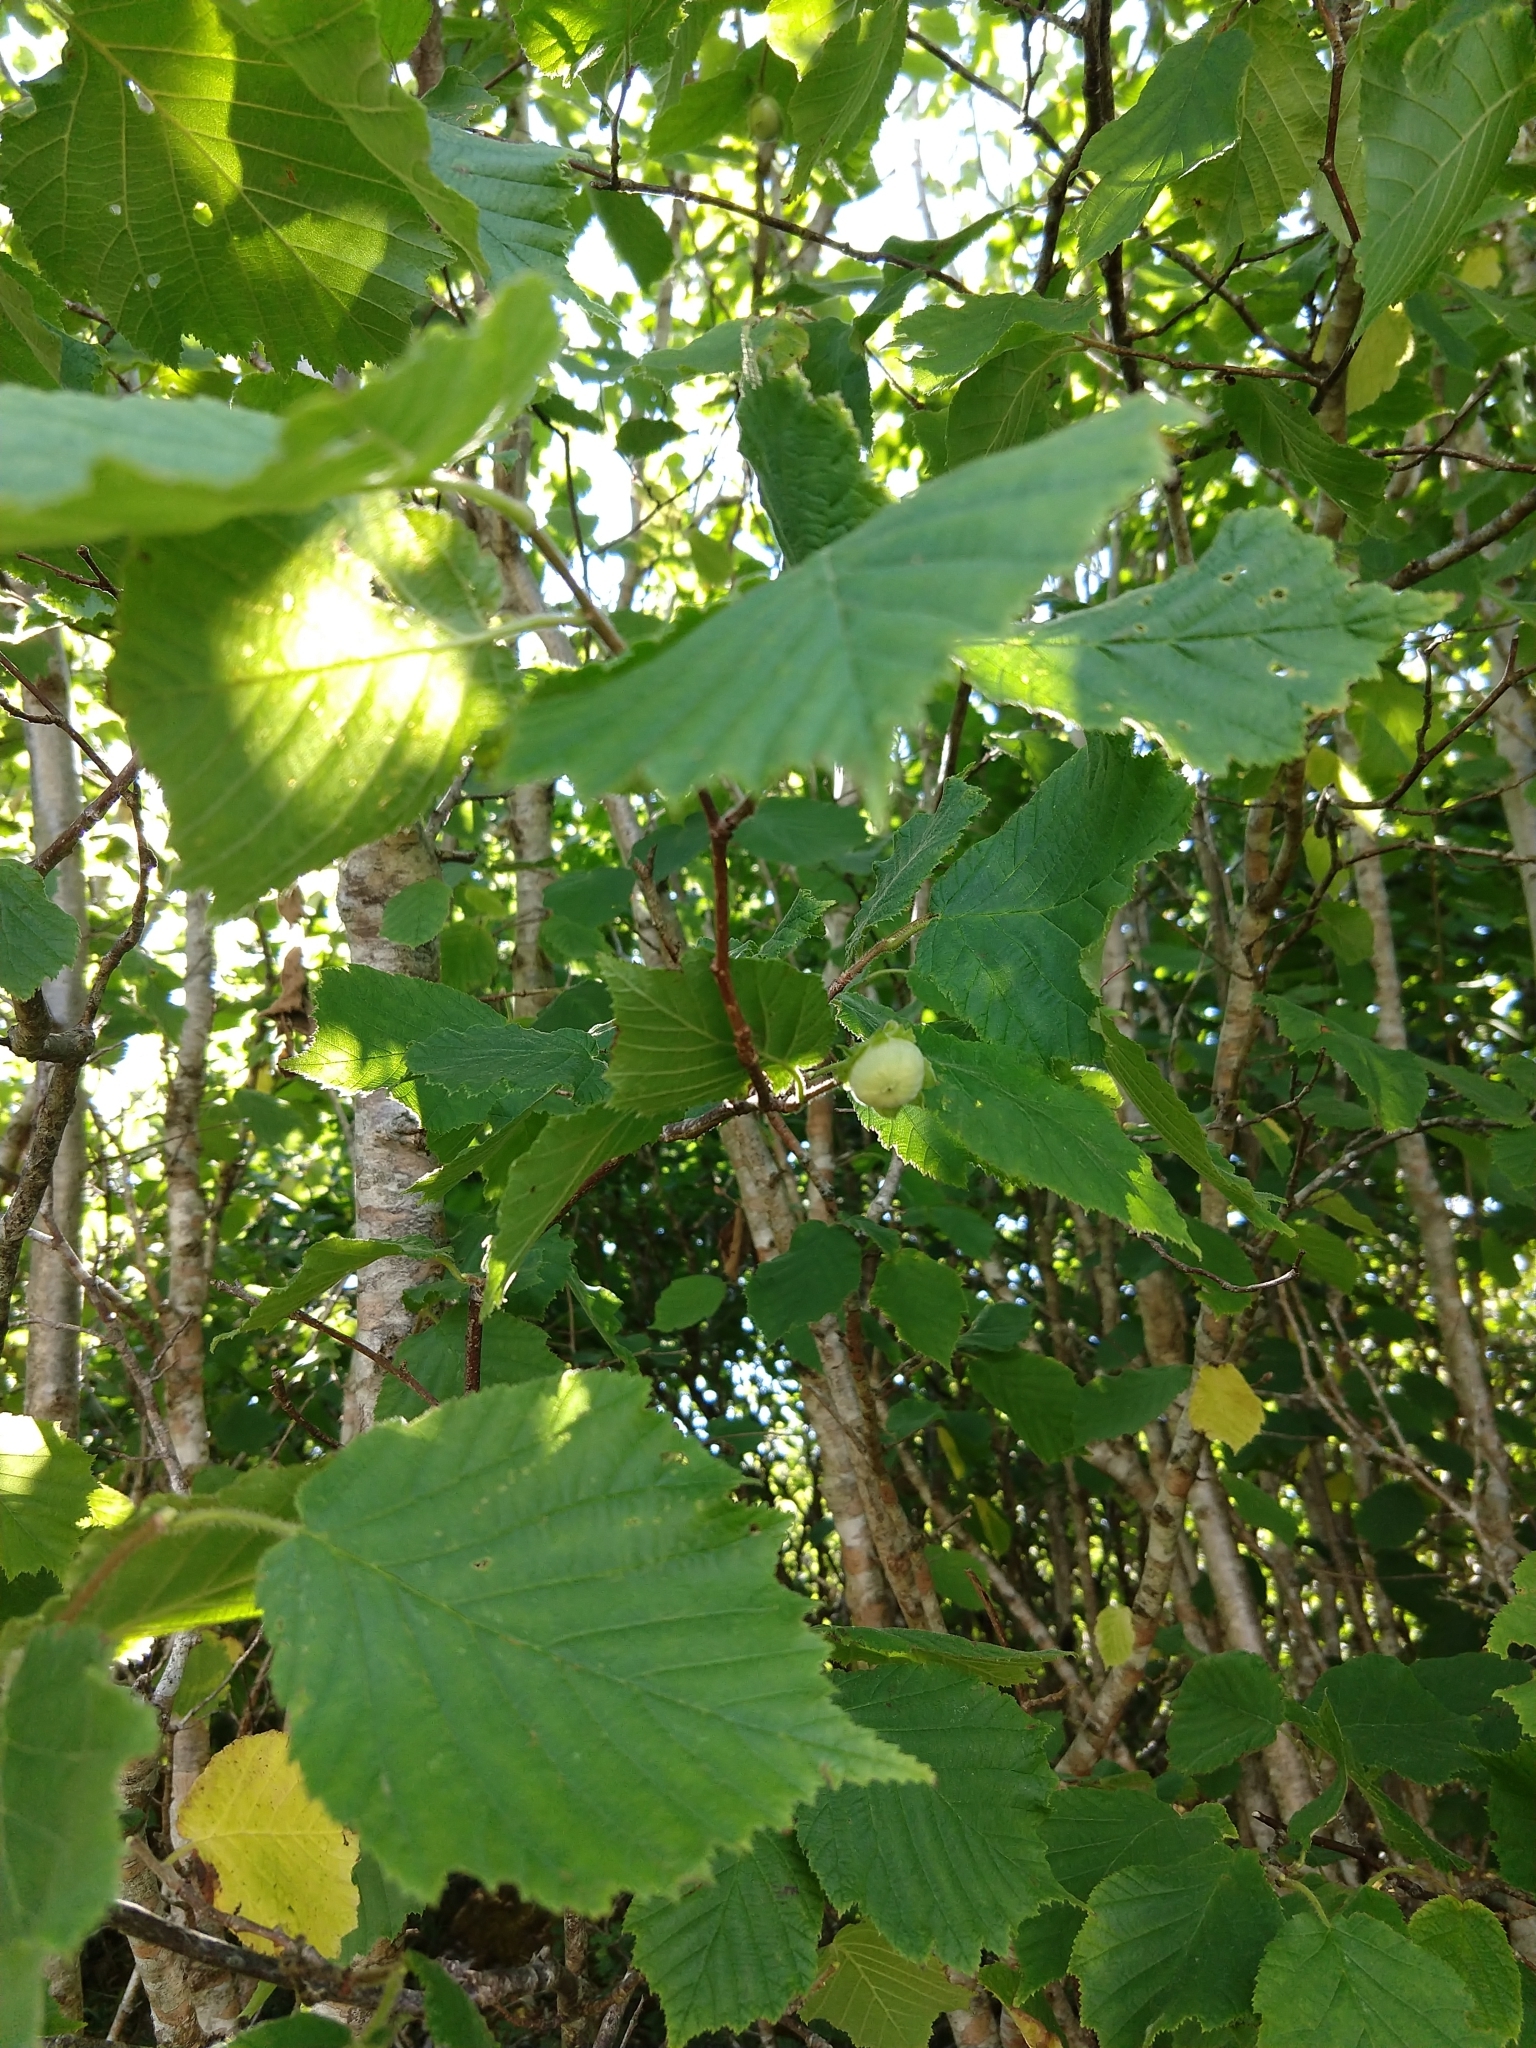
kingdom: Plantae
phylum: Tracheophyta
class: Magnoliopsida
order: Fagales
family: Betulaceae
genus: Corylus
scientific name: Corylus avellana
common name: European hazel
